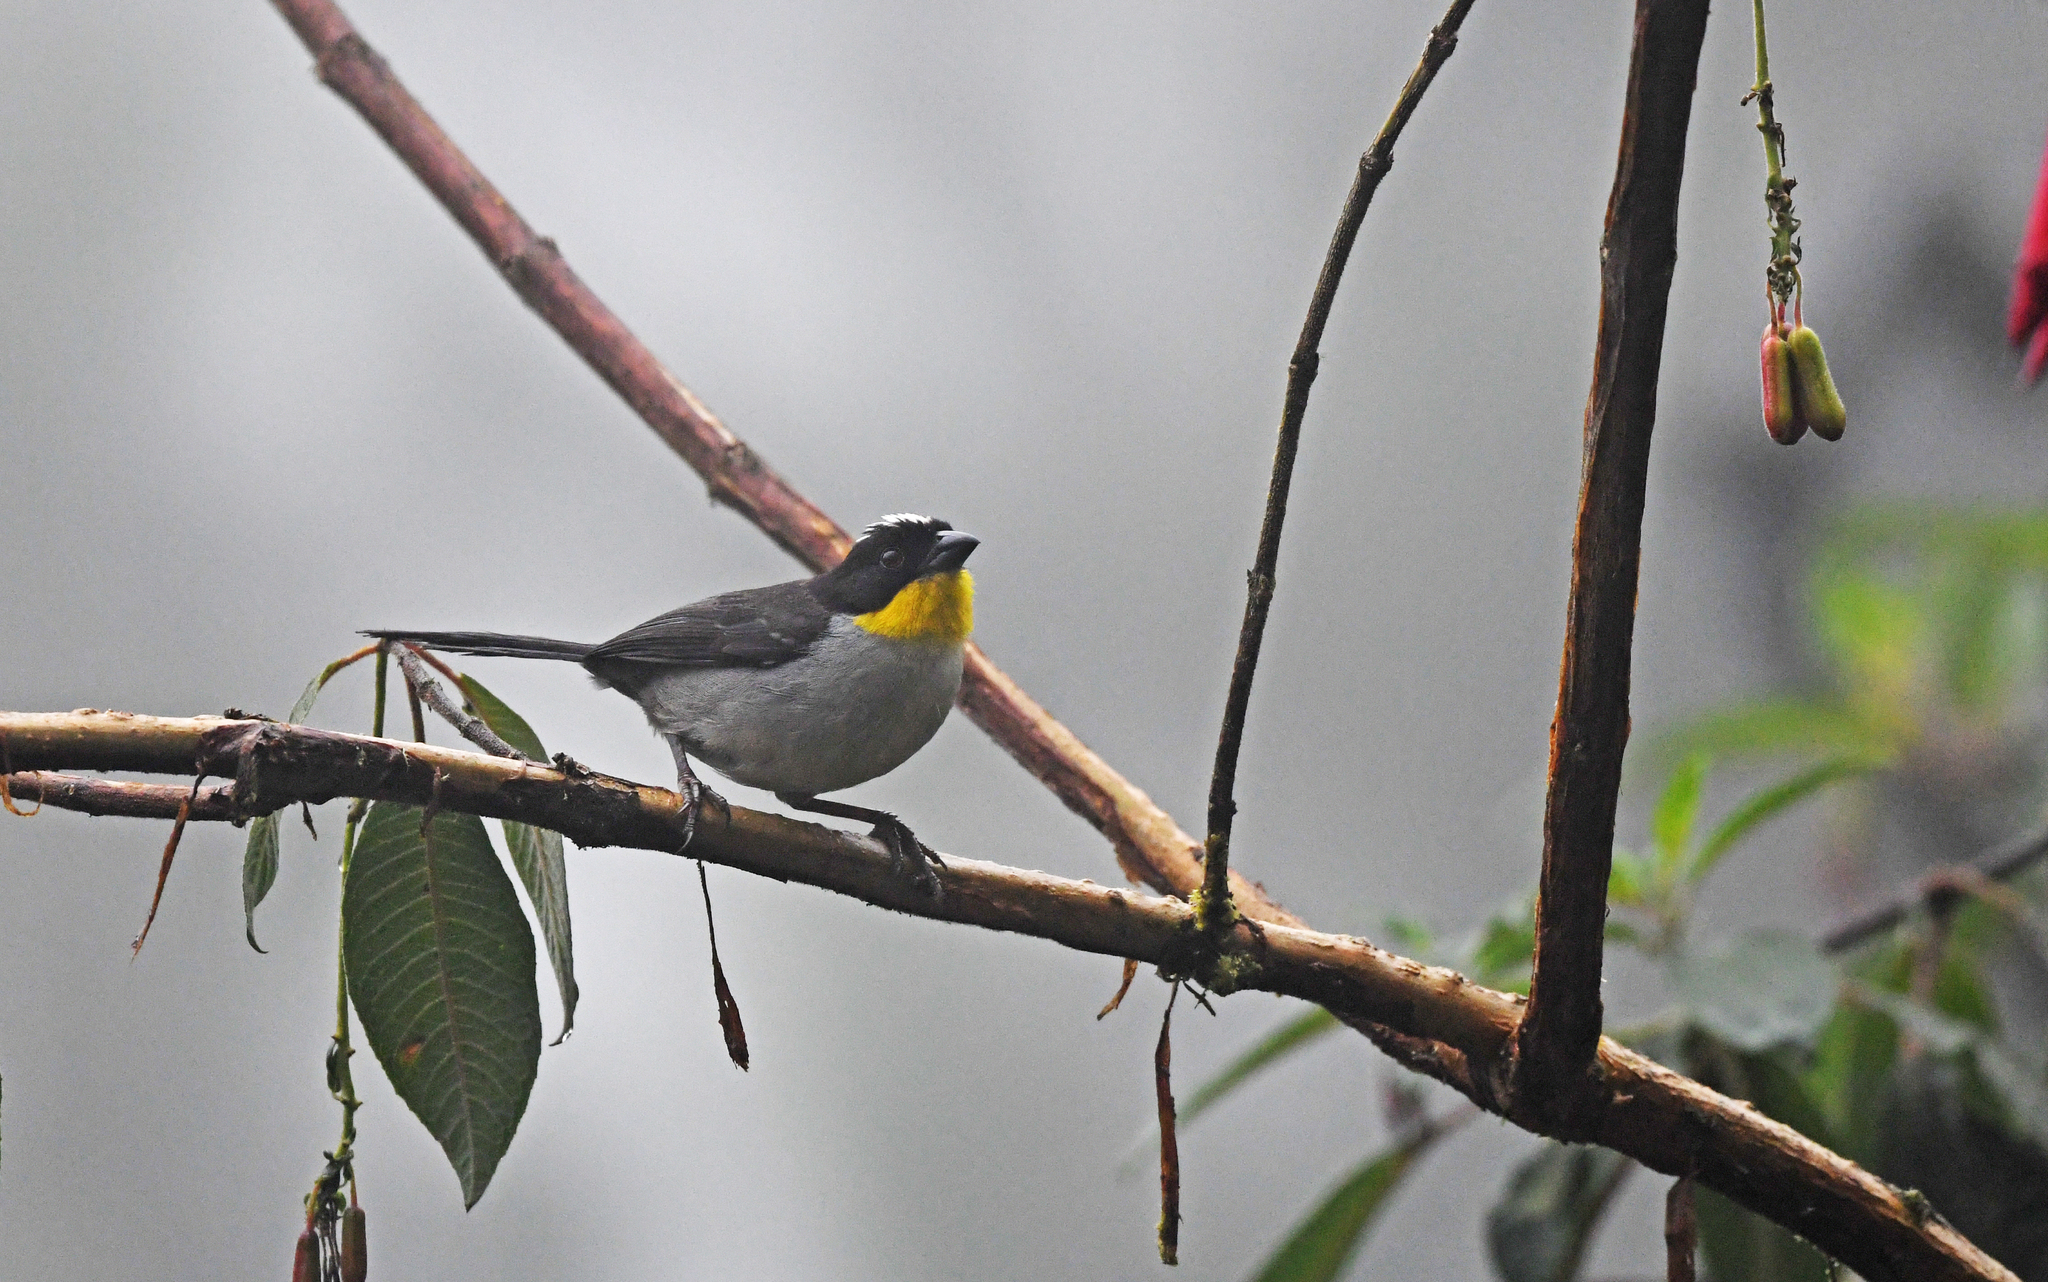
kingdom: Animalia
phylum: Chordata
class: Aves
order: Passeriformes
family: Passerellidae
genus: Atlapetes
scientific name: Atlapetes albinucha
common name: White-naped brush-finch
